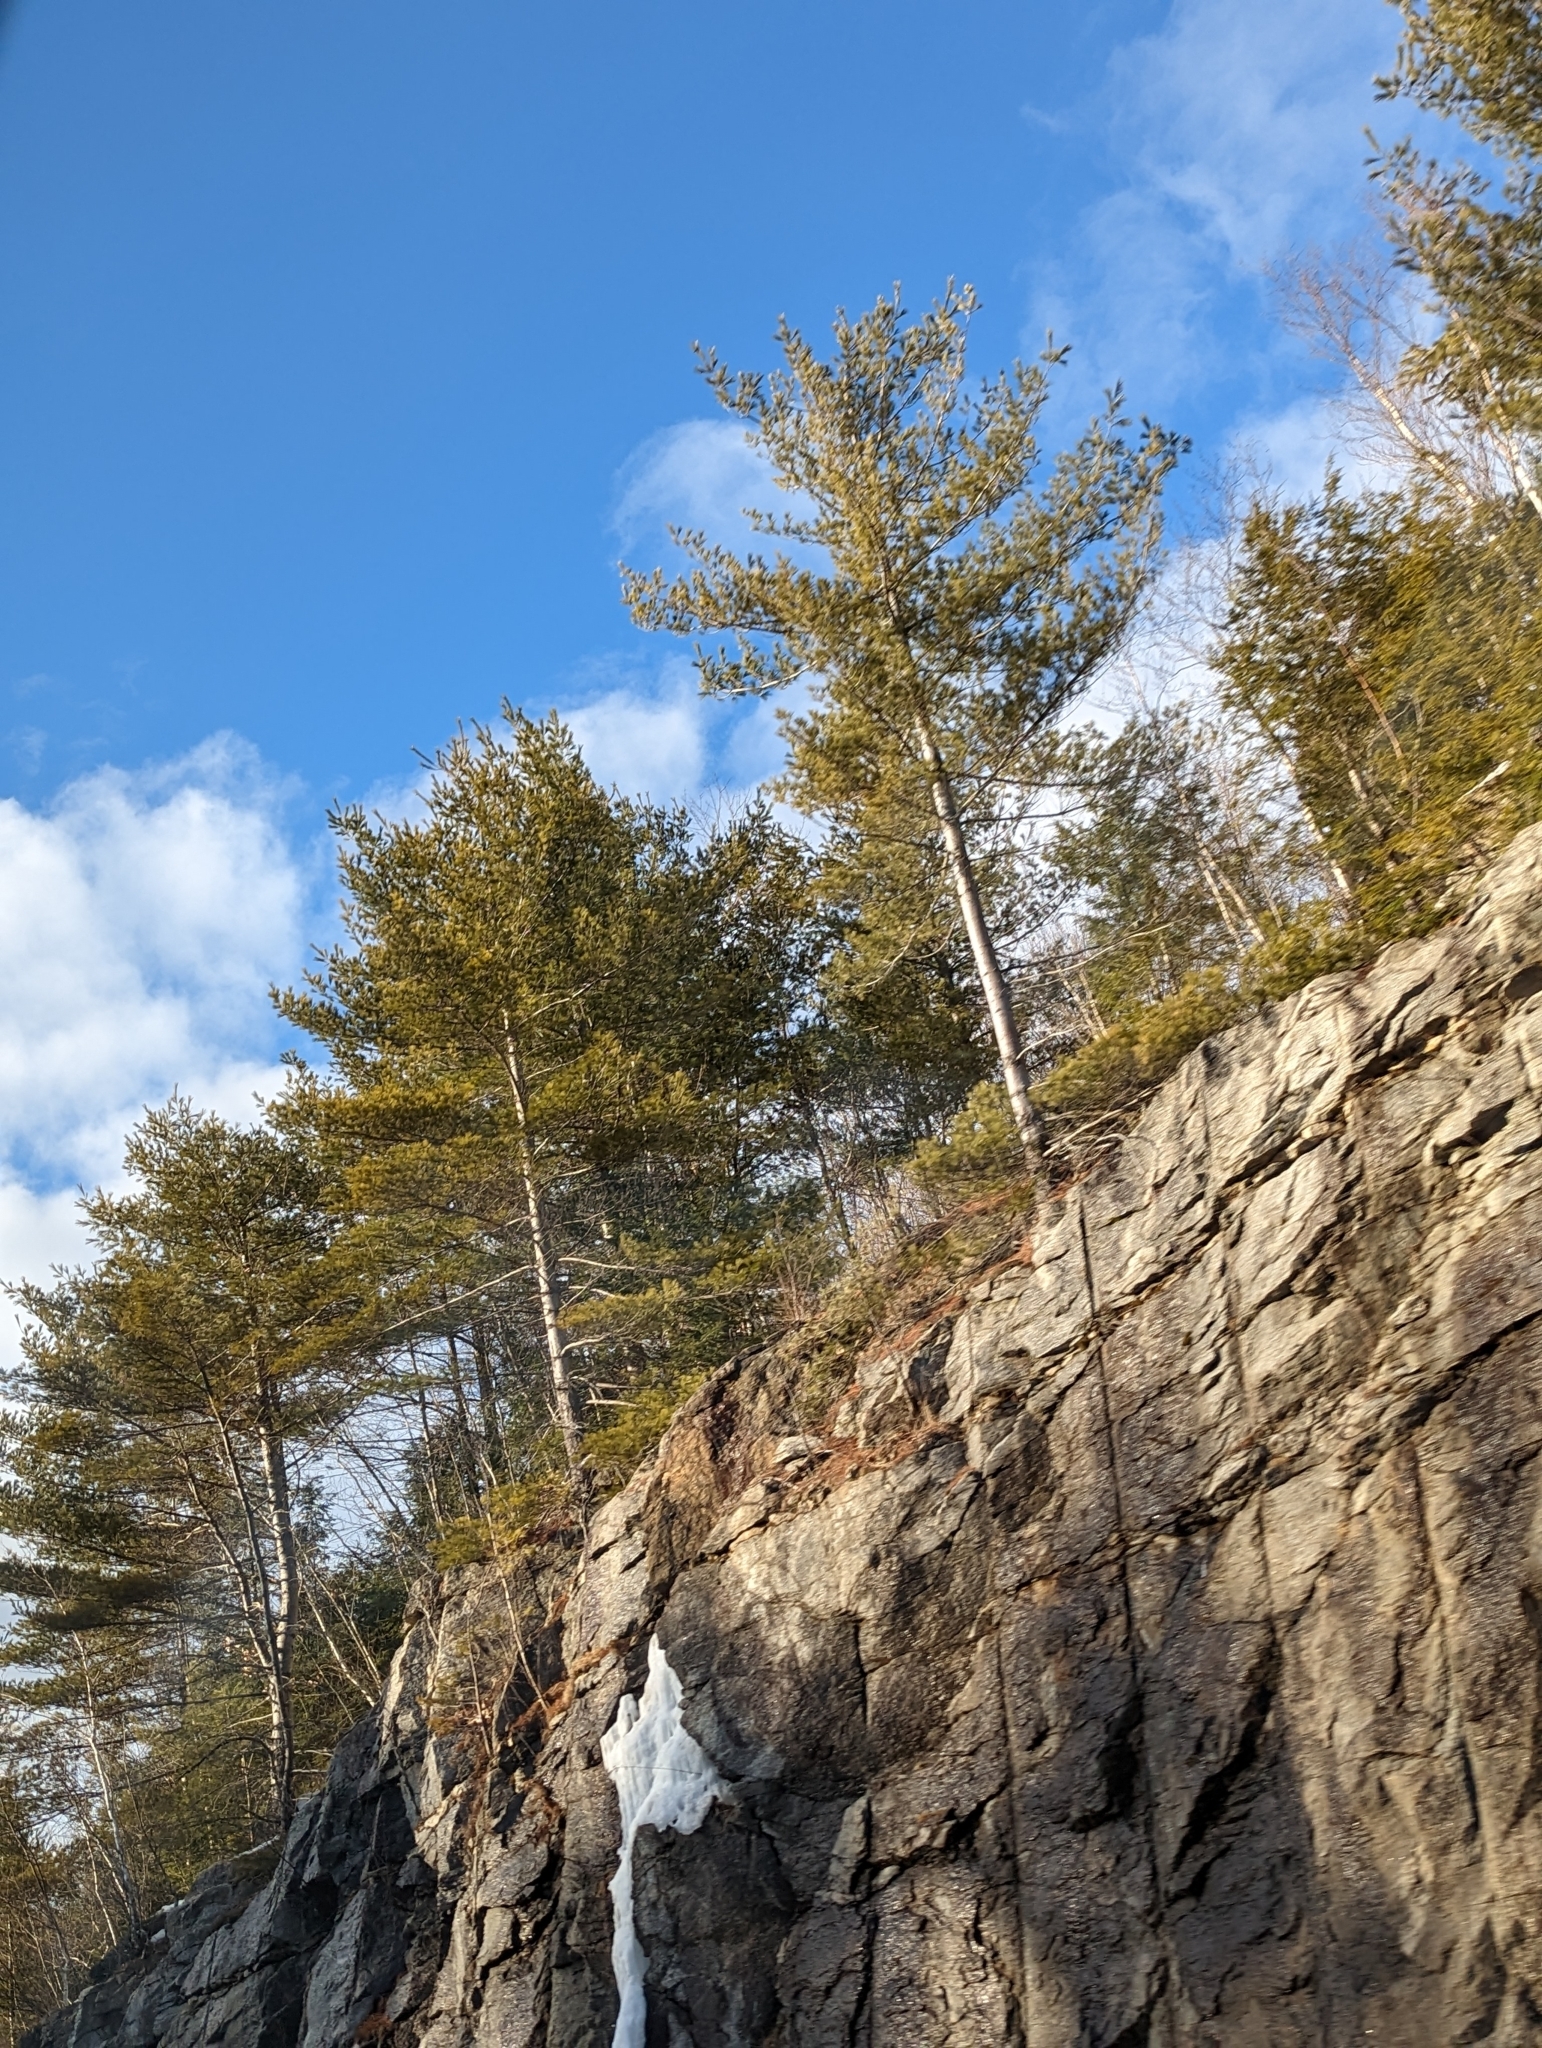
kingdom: Plantae
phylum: Tracheophyta
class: Pinopsida
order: Pinales
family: Pinaceae
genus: Pinus
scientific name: Pinus strobus
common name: Weymouth pine
